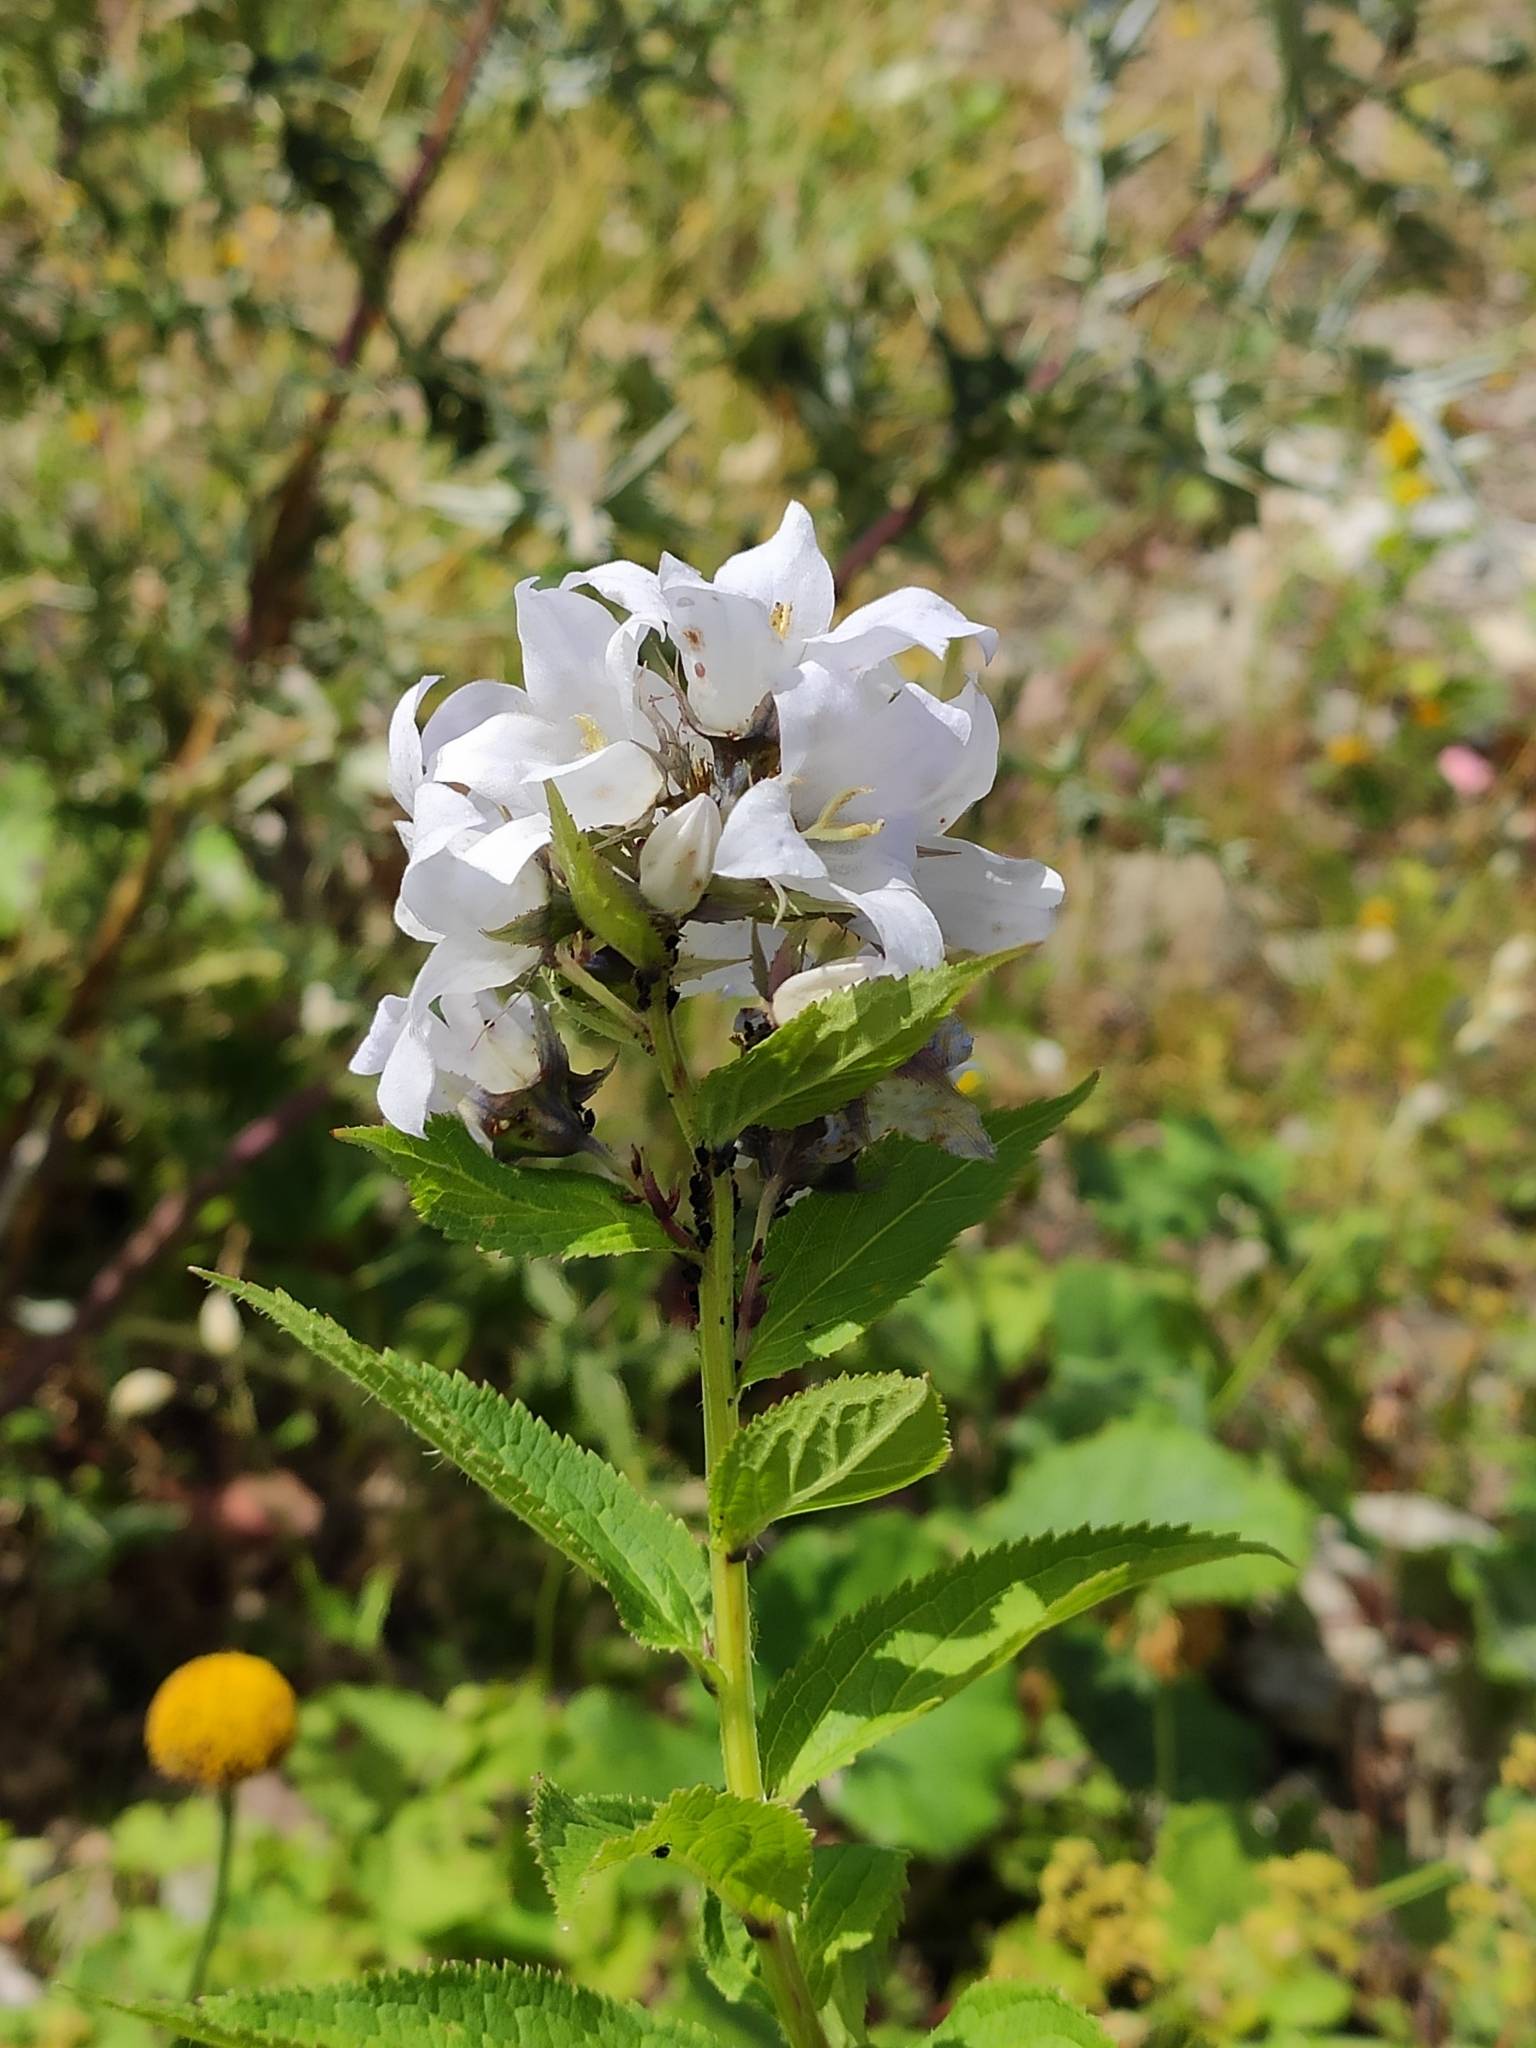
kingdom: Plantae
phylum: Tracheophyta
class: Magnoliopsida
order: Asterales
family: Campanulaceae
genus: Campanula
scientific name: Campanula lactiflora
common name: Milky bellflower
